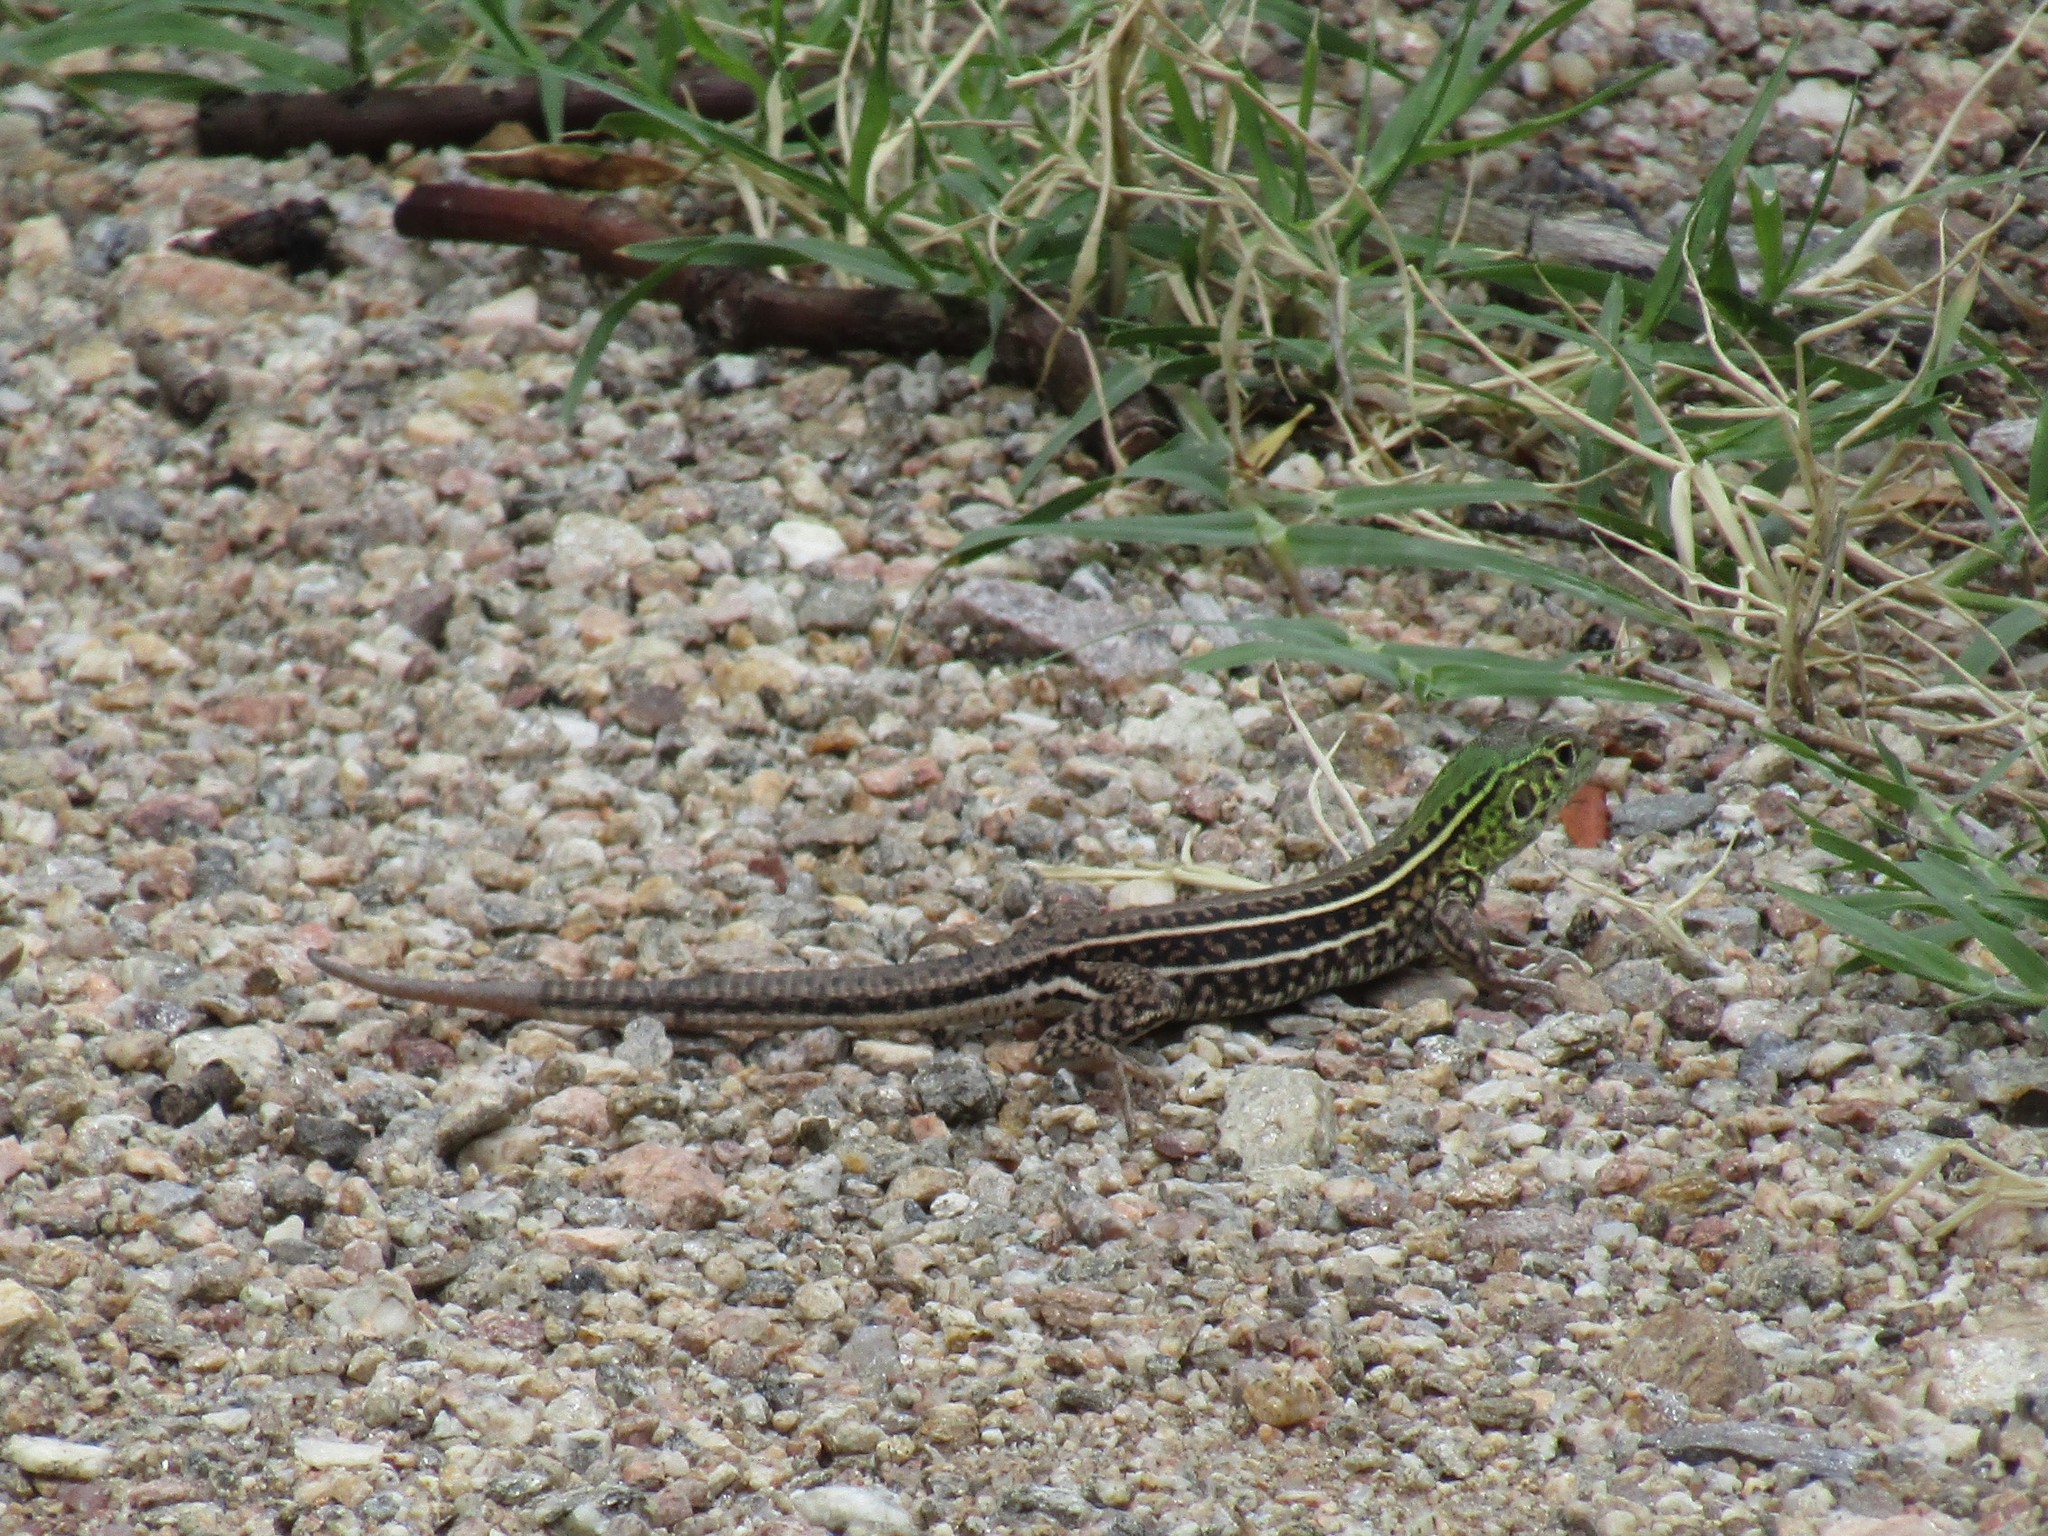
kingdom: Animalia
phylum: Chordata
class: Squamata
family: Teiidae
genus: Teius
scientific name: Teius teyou
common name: Four-toed tegu
